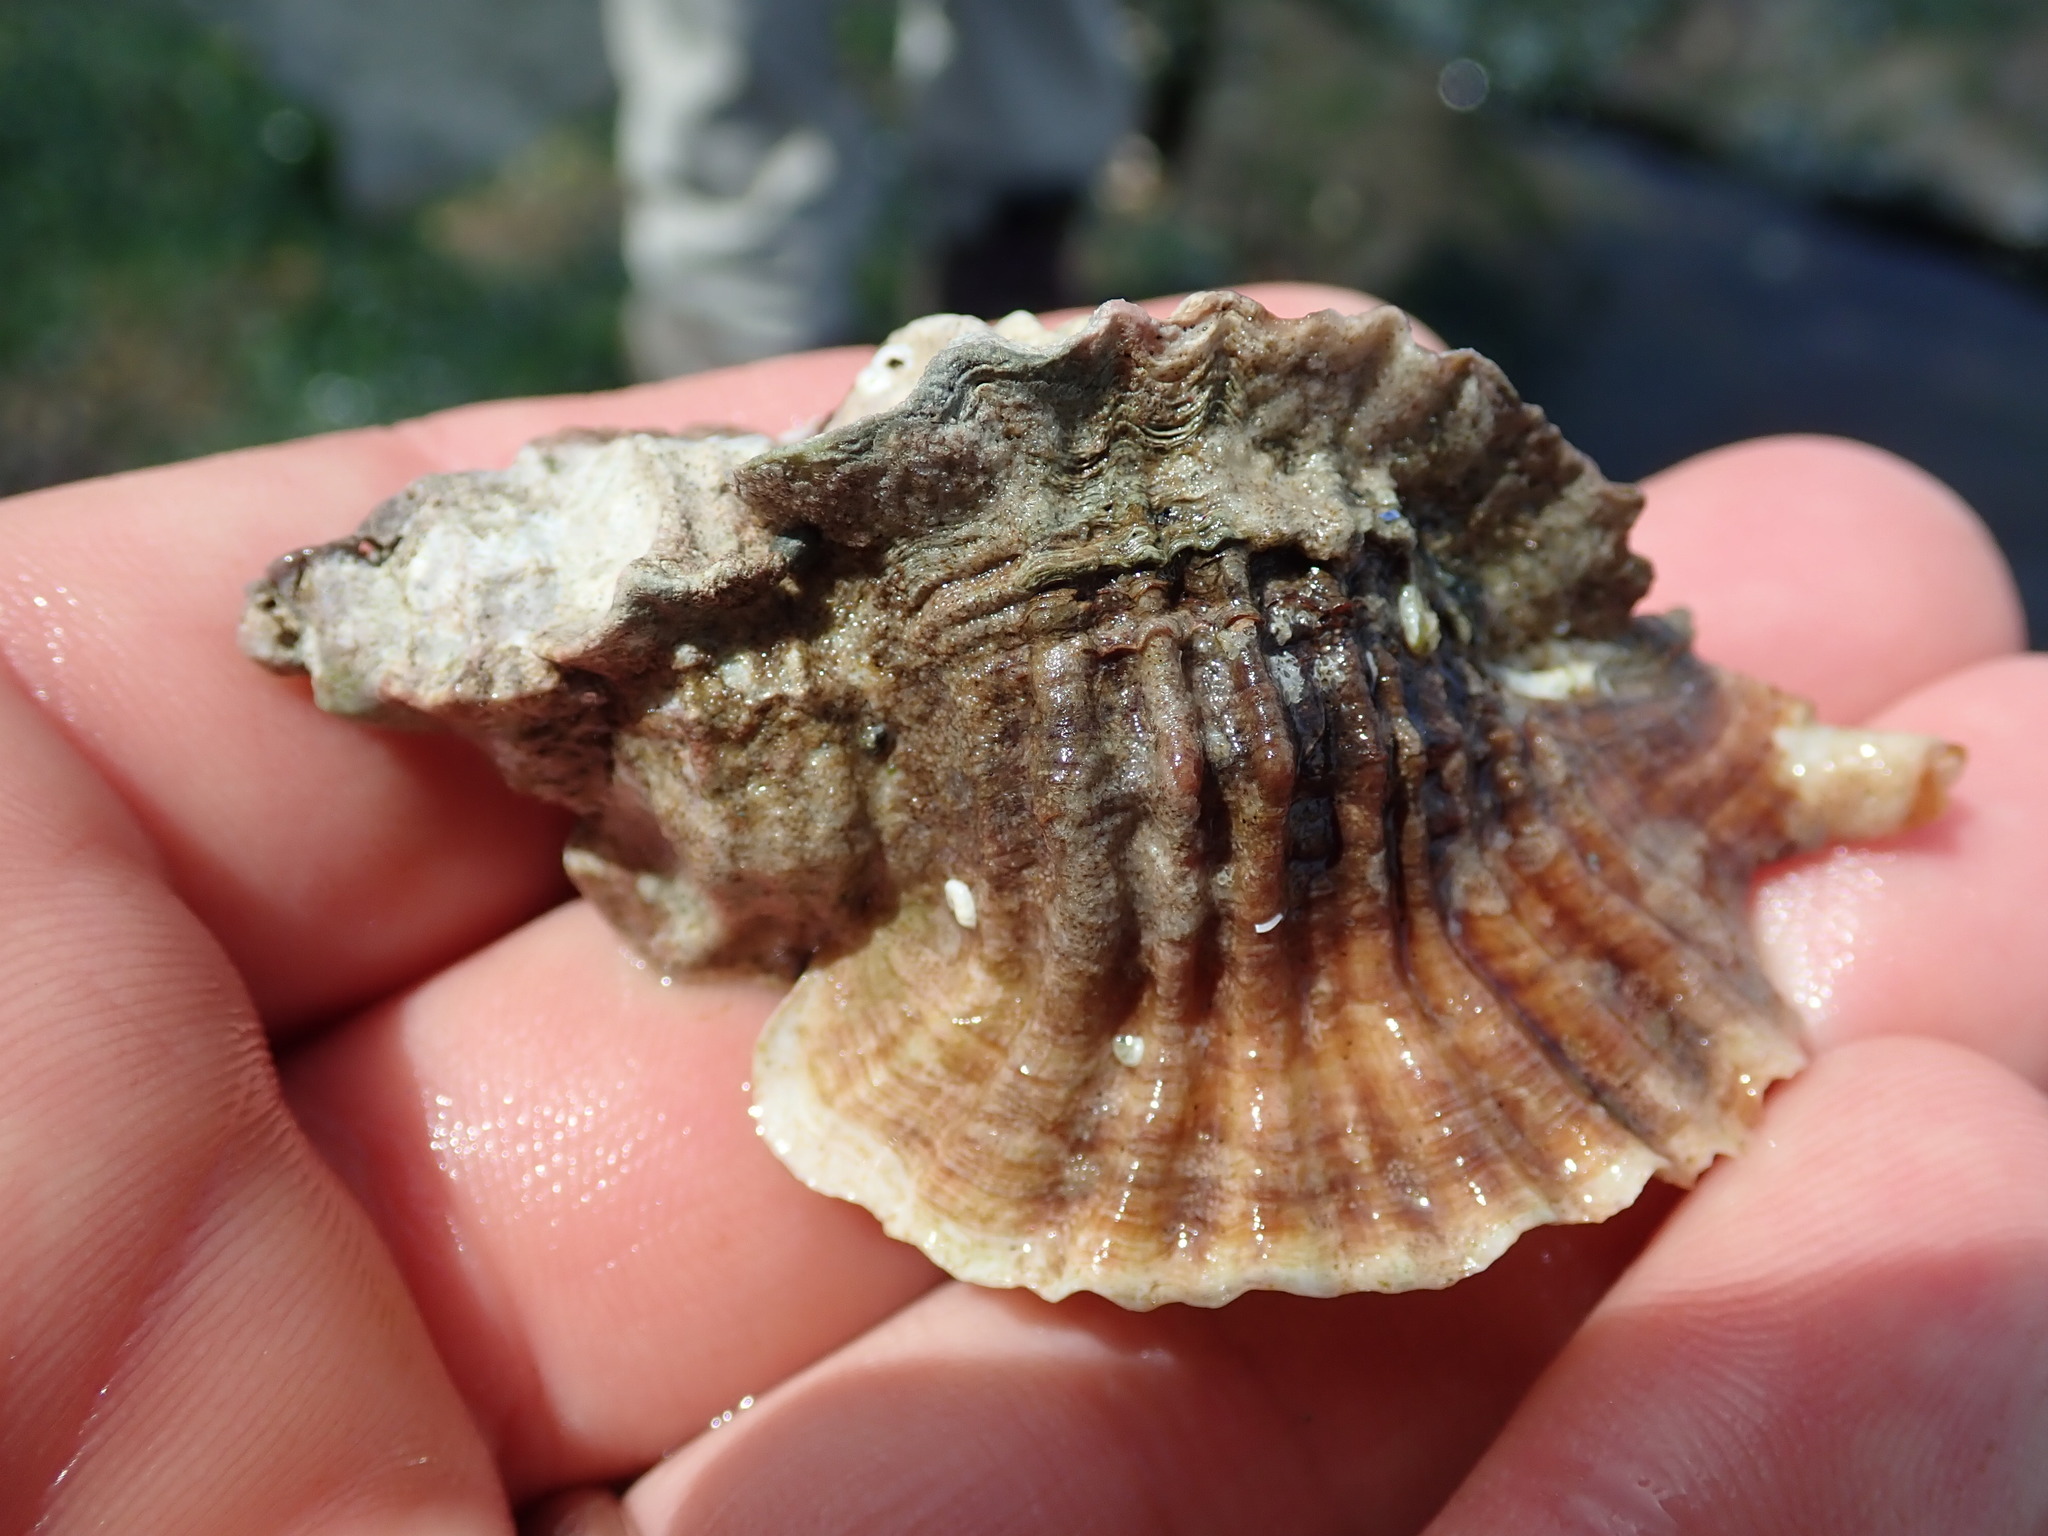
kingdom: Animalia
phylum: Mollusca
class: Gastropoda
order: Neogastropoda
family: Muricidae
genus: Ceratostoma
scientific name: Ceratostoma foliatum
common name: Foliate thorn purpura
